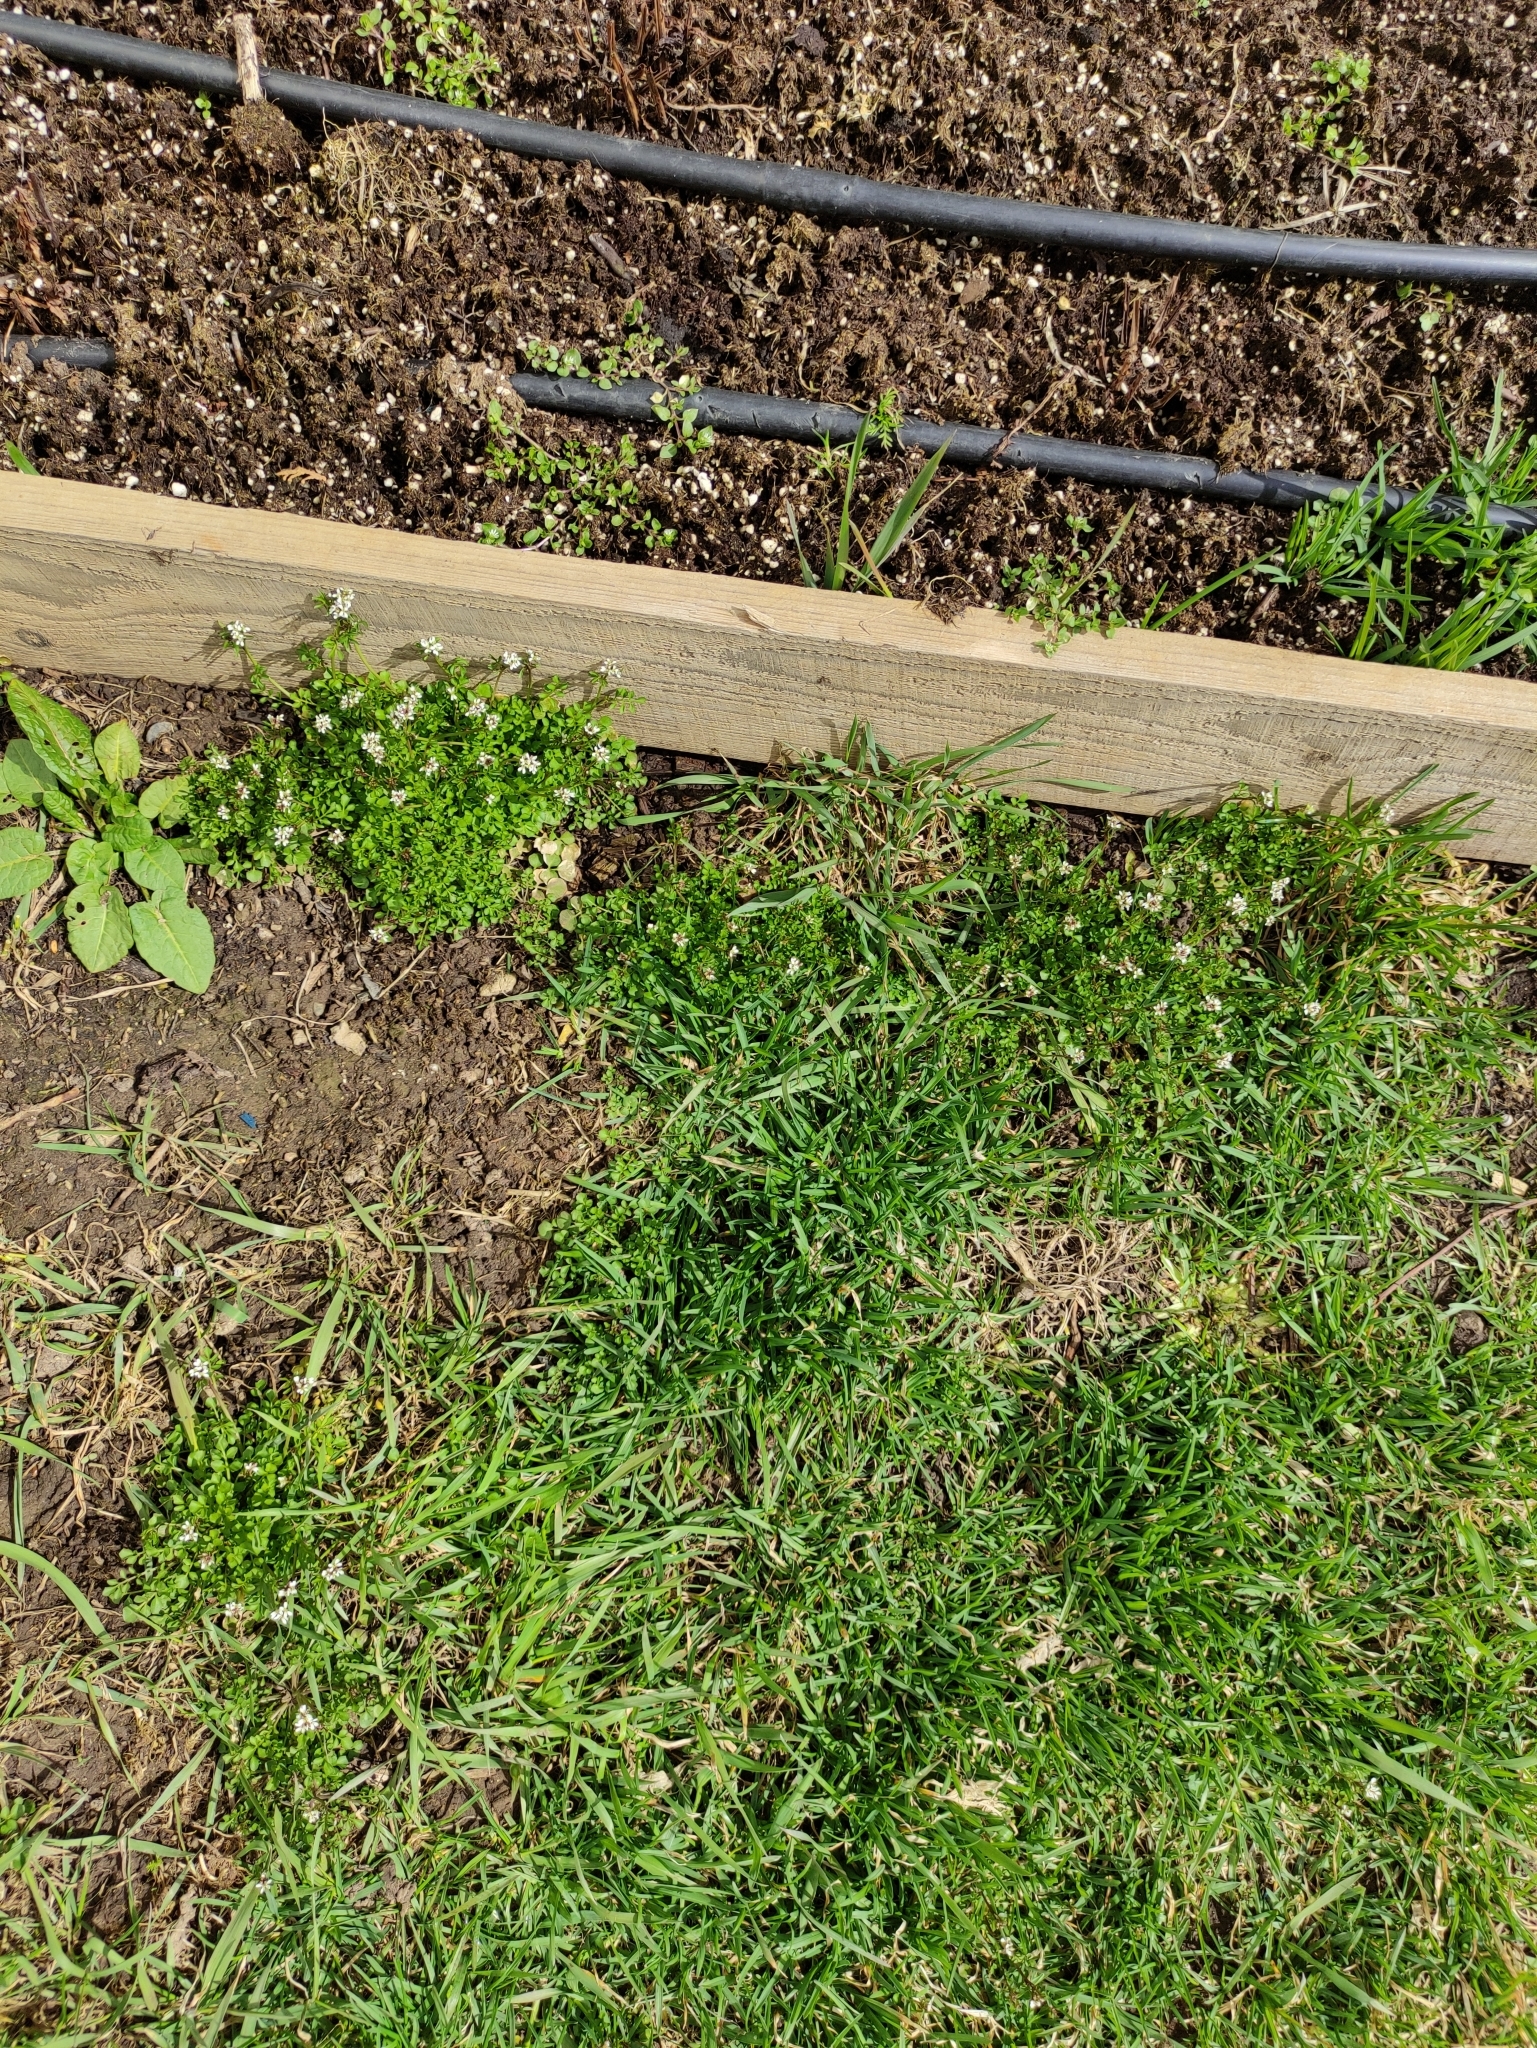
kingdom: Plantae
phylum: Tracheophyta
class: Magnoliopsida
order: Brassicales
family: Brassicaceae
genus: Cardamine
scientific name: Cardamine hirsuta
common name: Hairy bittercress
